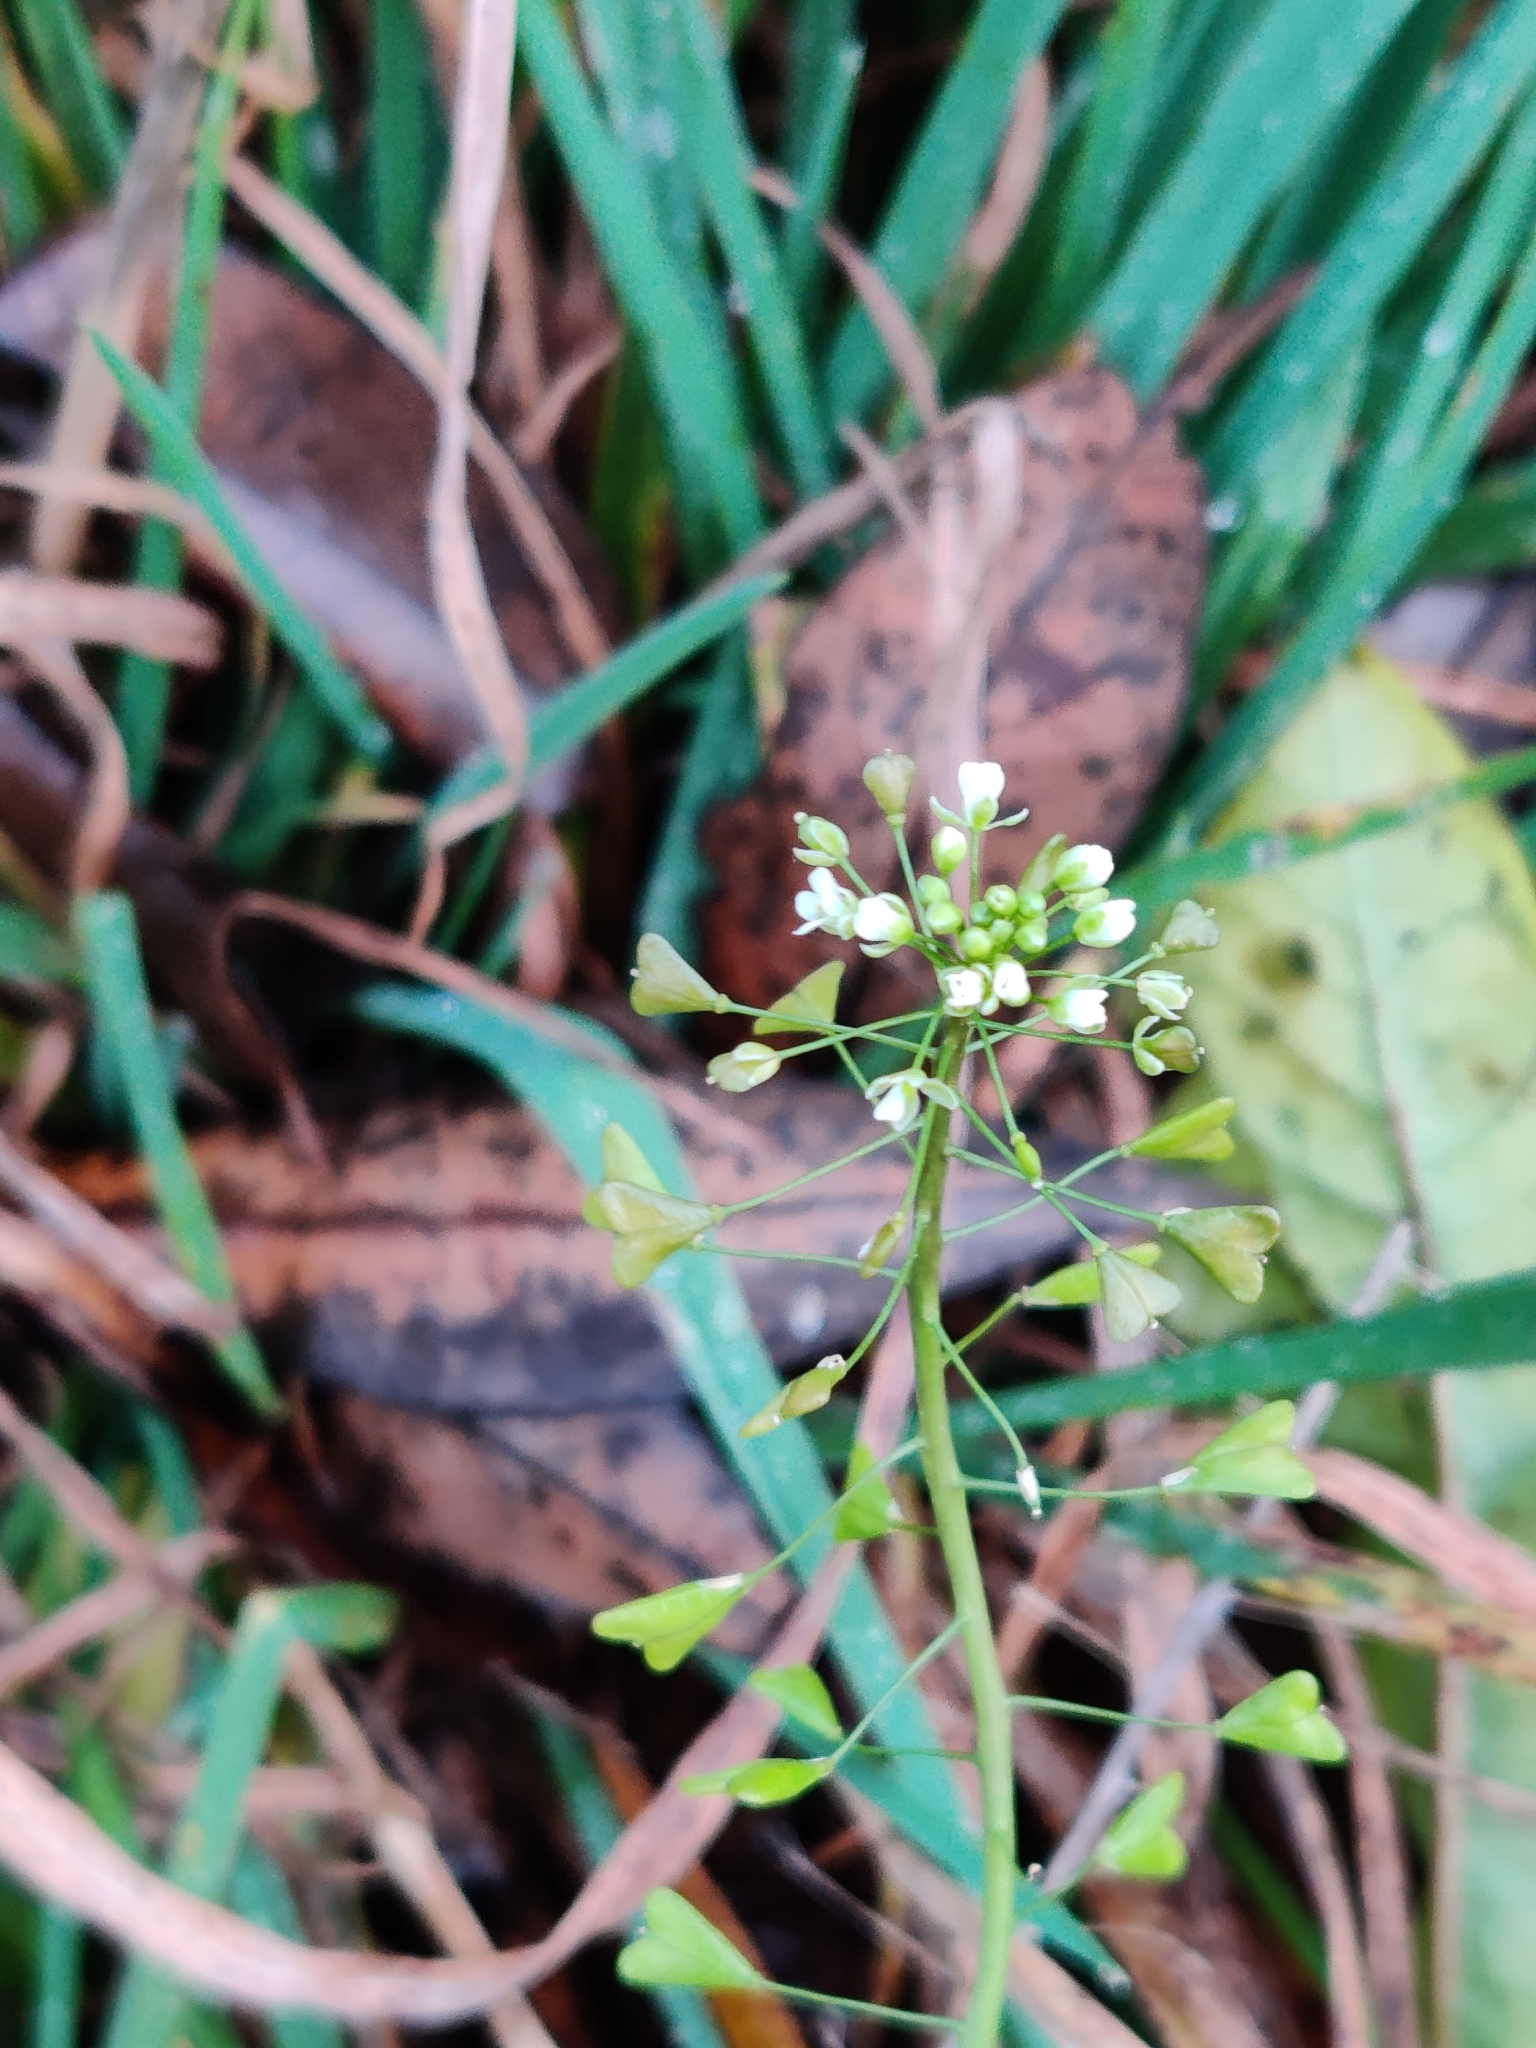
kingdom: Plantae
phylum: Tracheophyta
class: Magnoliopsida
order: Brassicales
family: Brassicaceae
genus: Capsella
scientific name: Capsella bursa-pastoris
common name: Shepherd's purse
